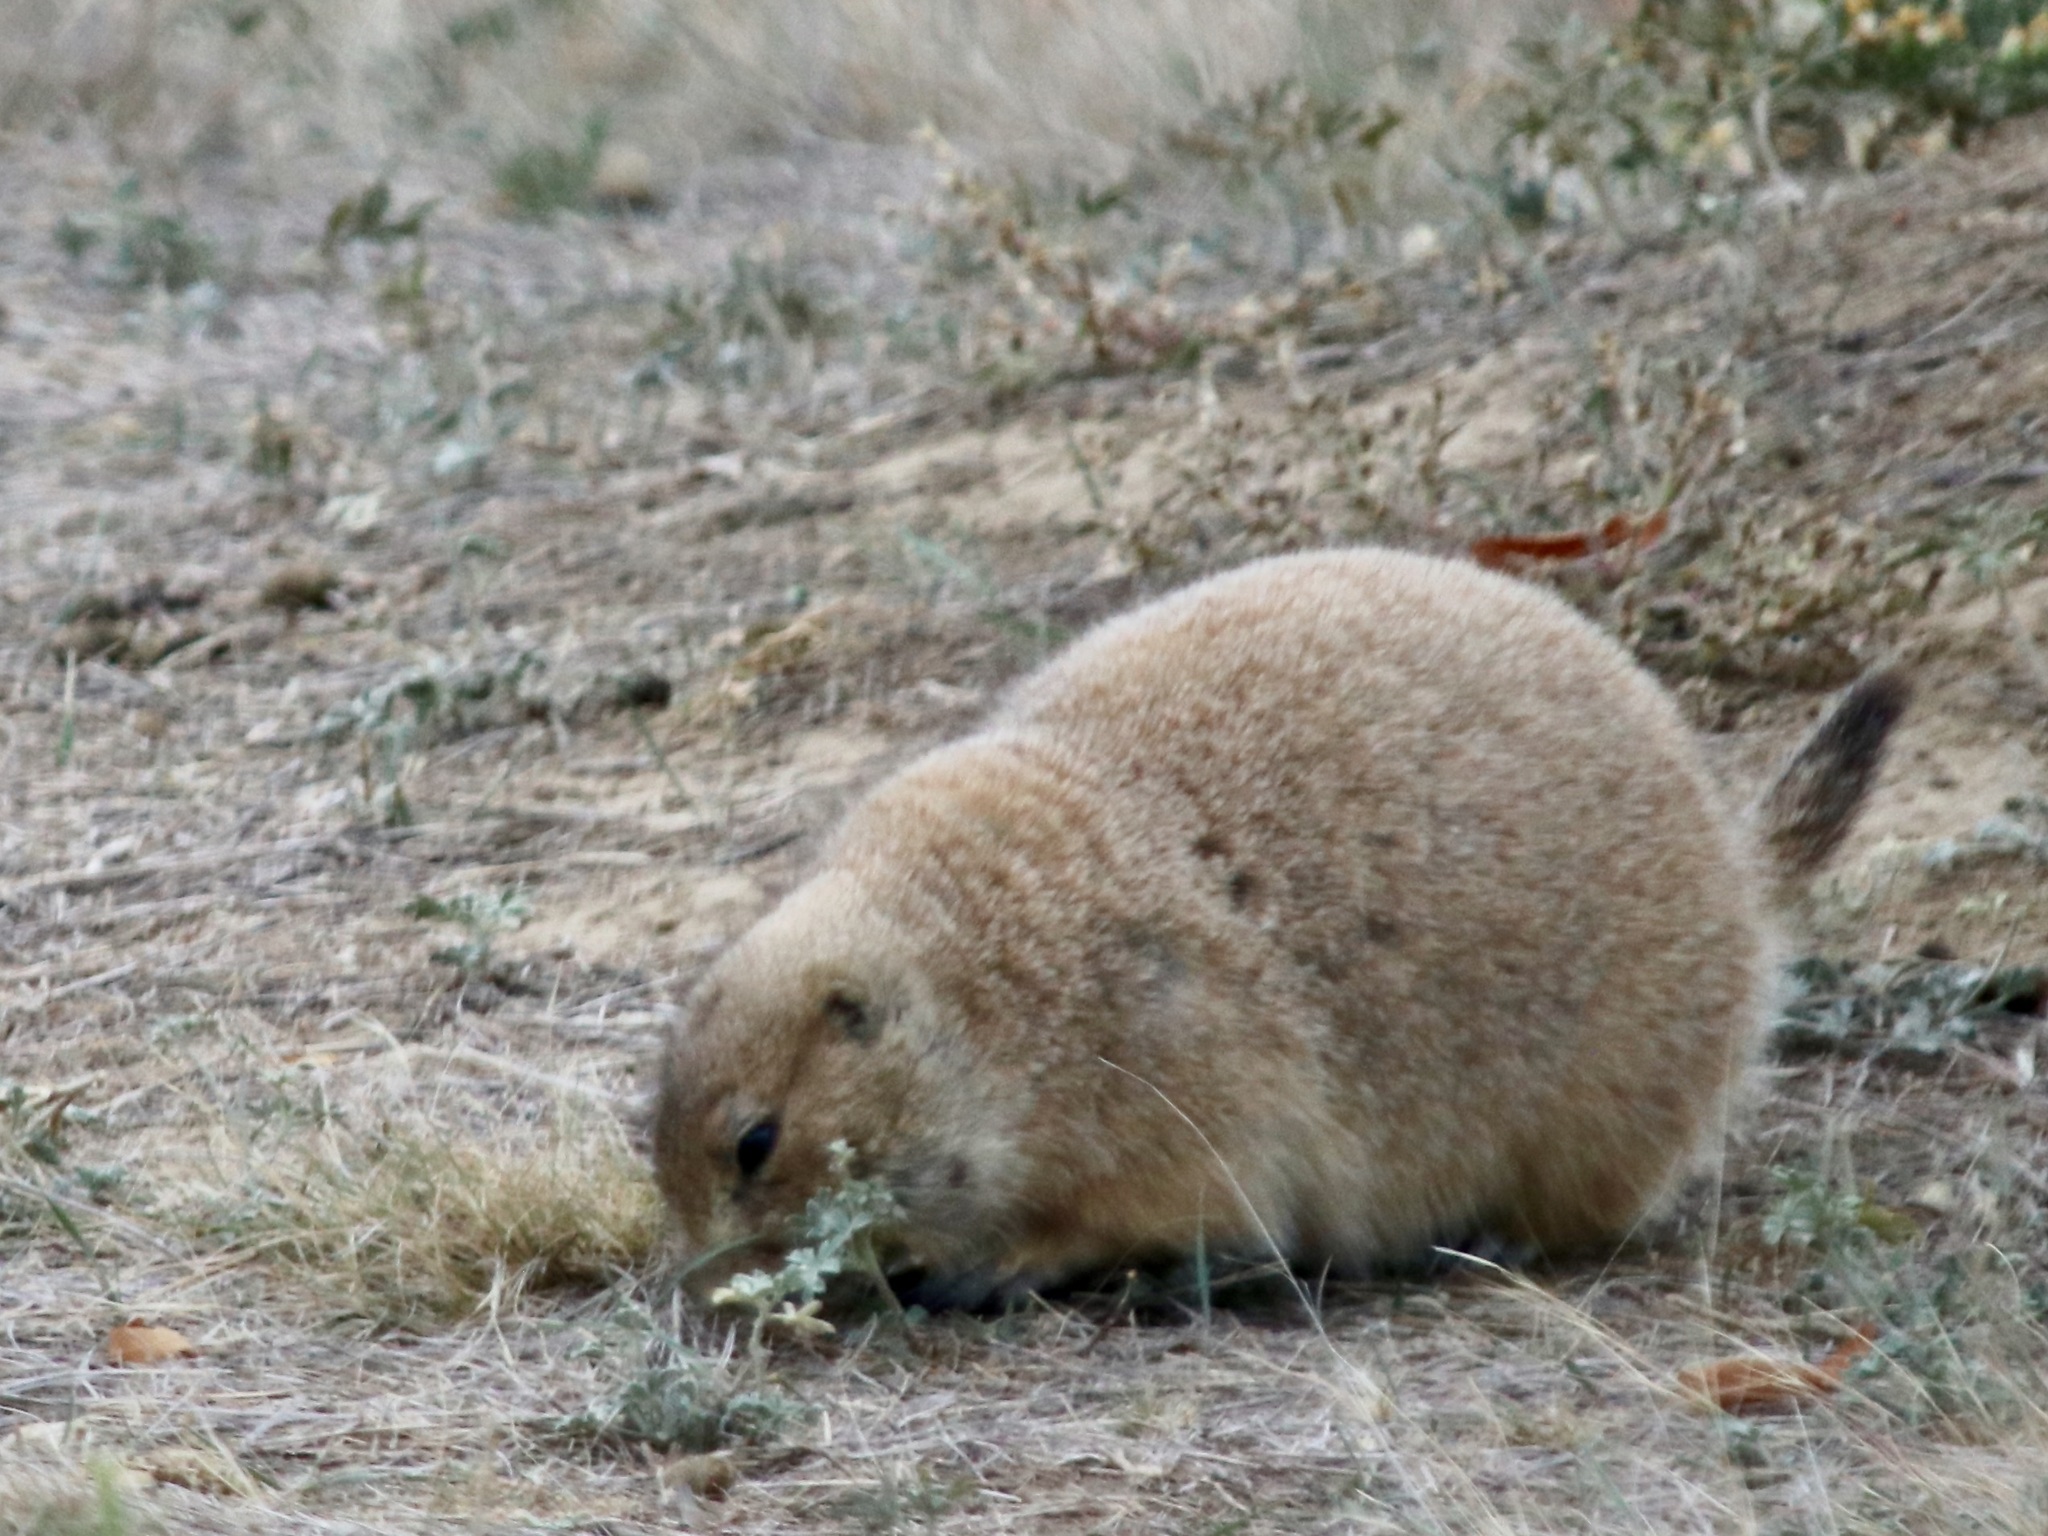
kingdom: Animalia
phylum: Chordata
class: Mammalia
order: Rodentia
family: Sciuridae
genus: Cynomys
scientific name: Cynomys ludovicianus
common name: Black-tailed prairie dog
